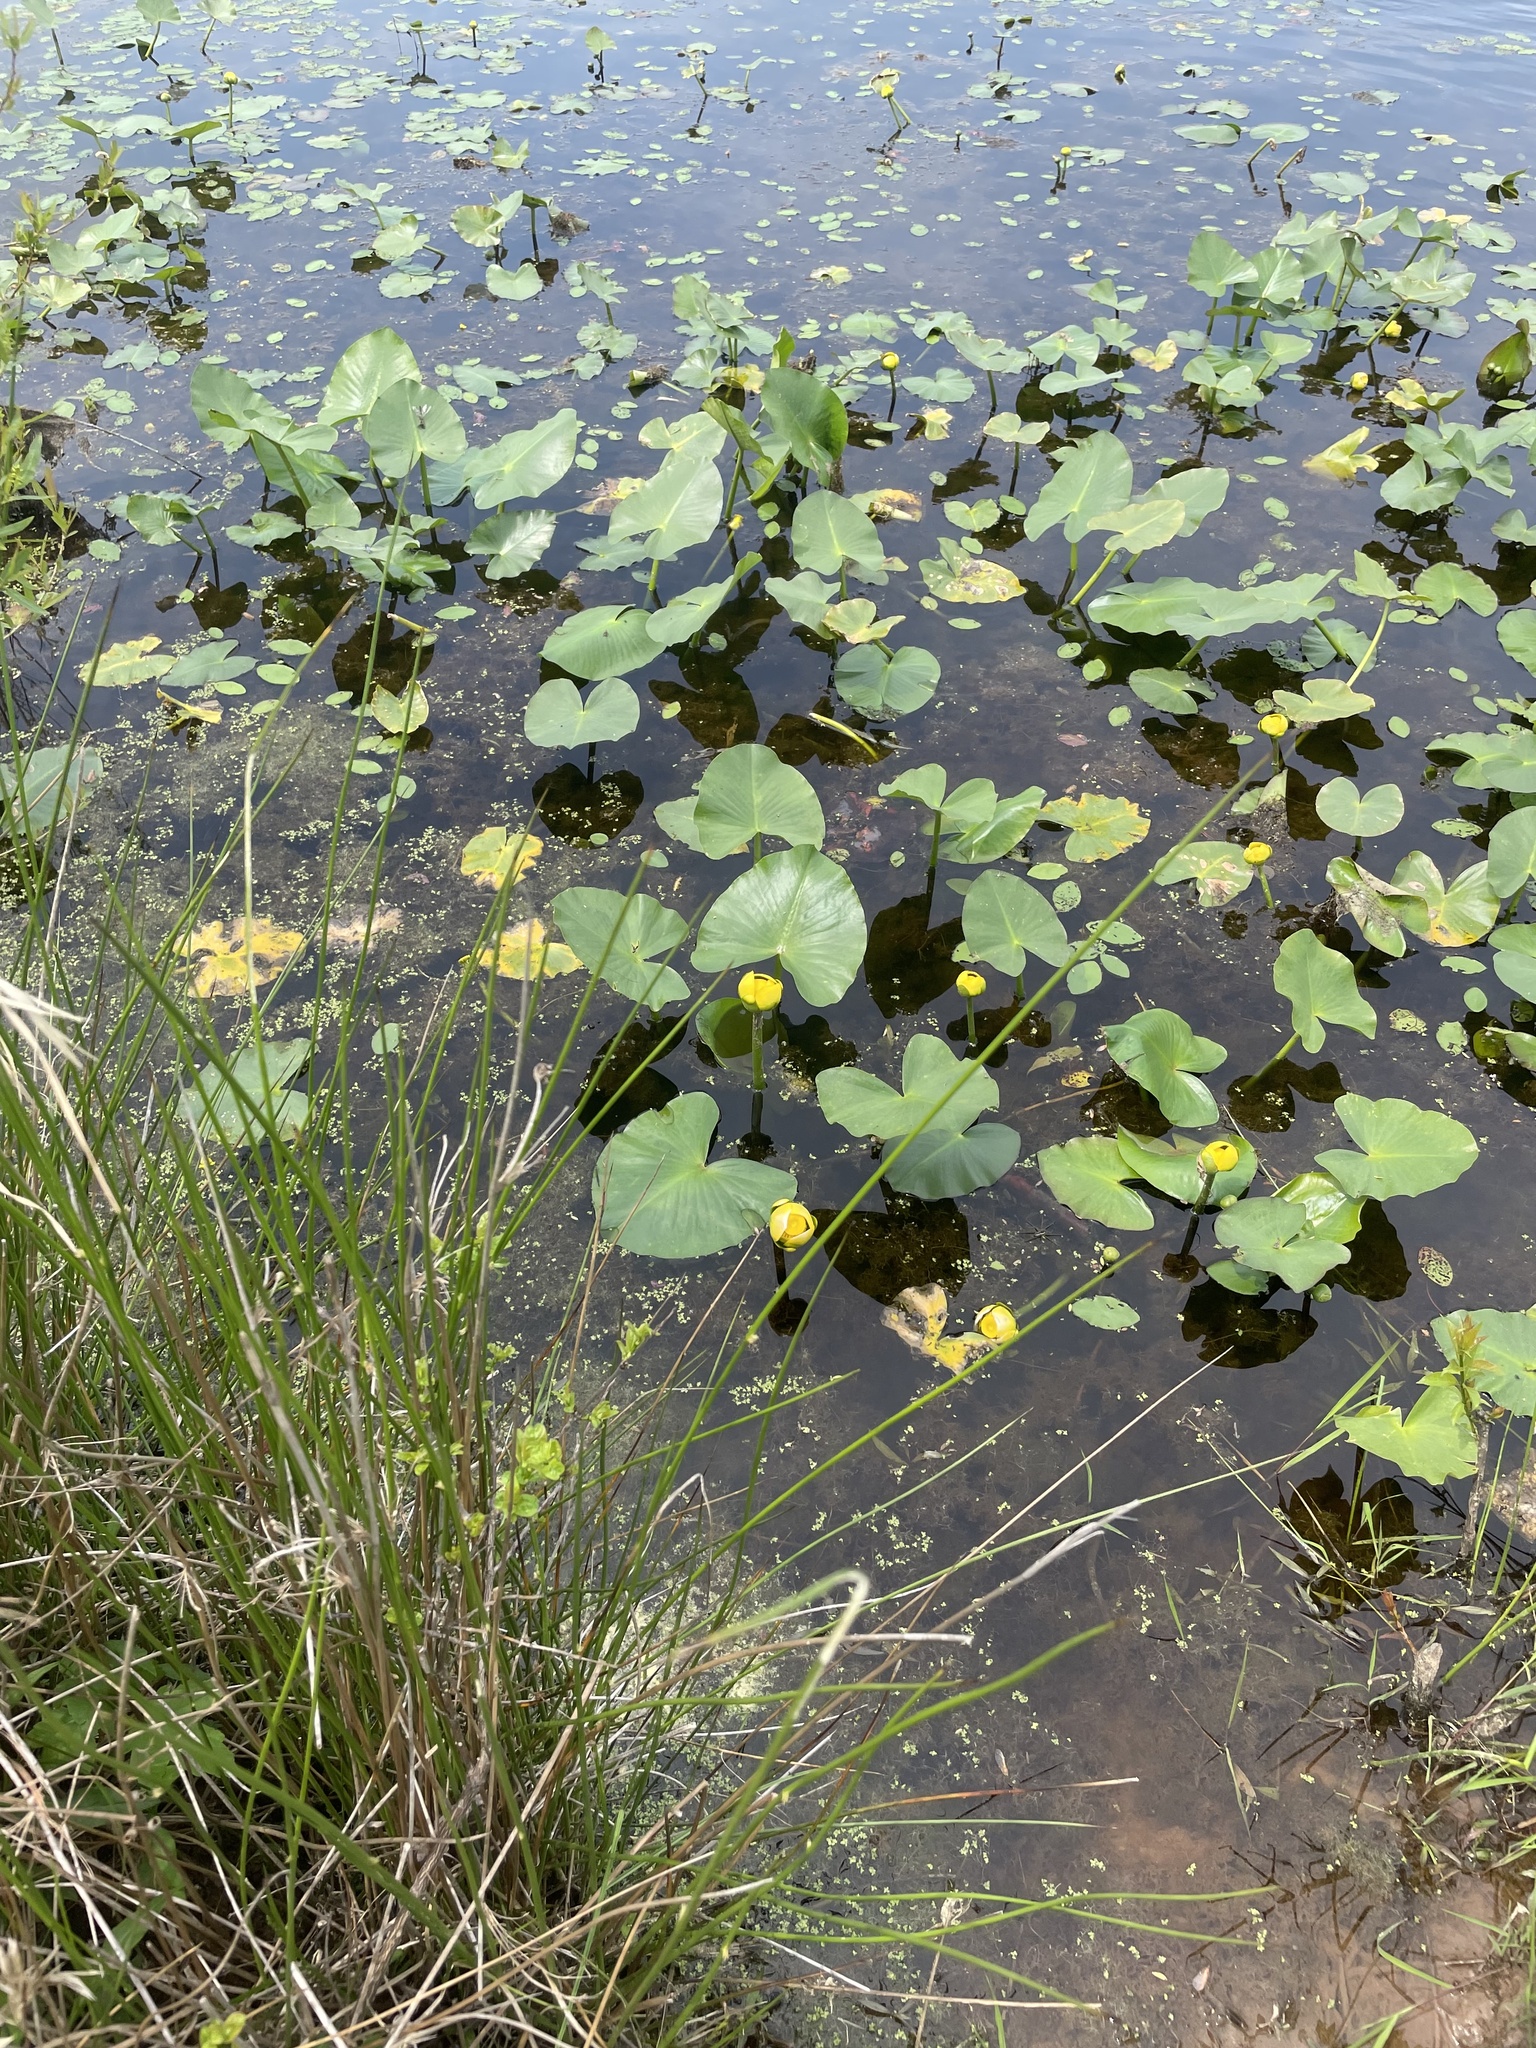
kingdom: Plantae
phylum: Tracheophyta
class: Magnoliopsida
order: Nymphaeales
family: Nymphaeaceae
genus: Nuphar
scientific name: Nuphar advena
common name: Spatter-dock
